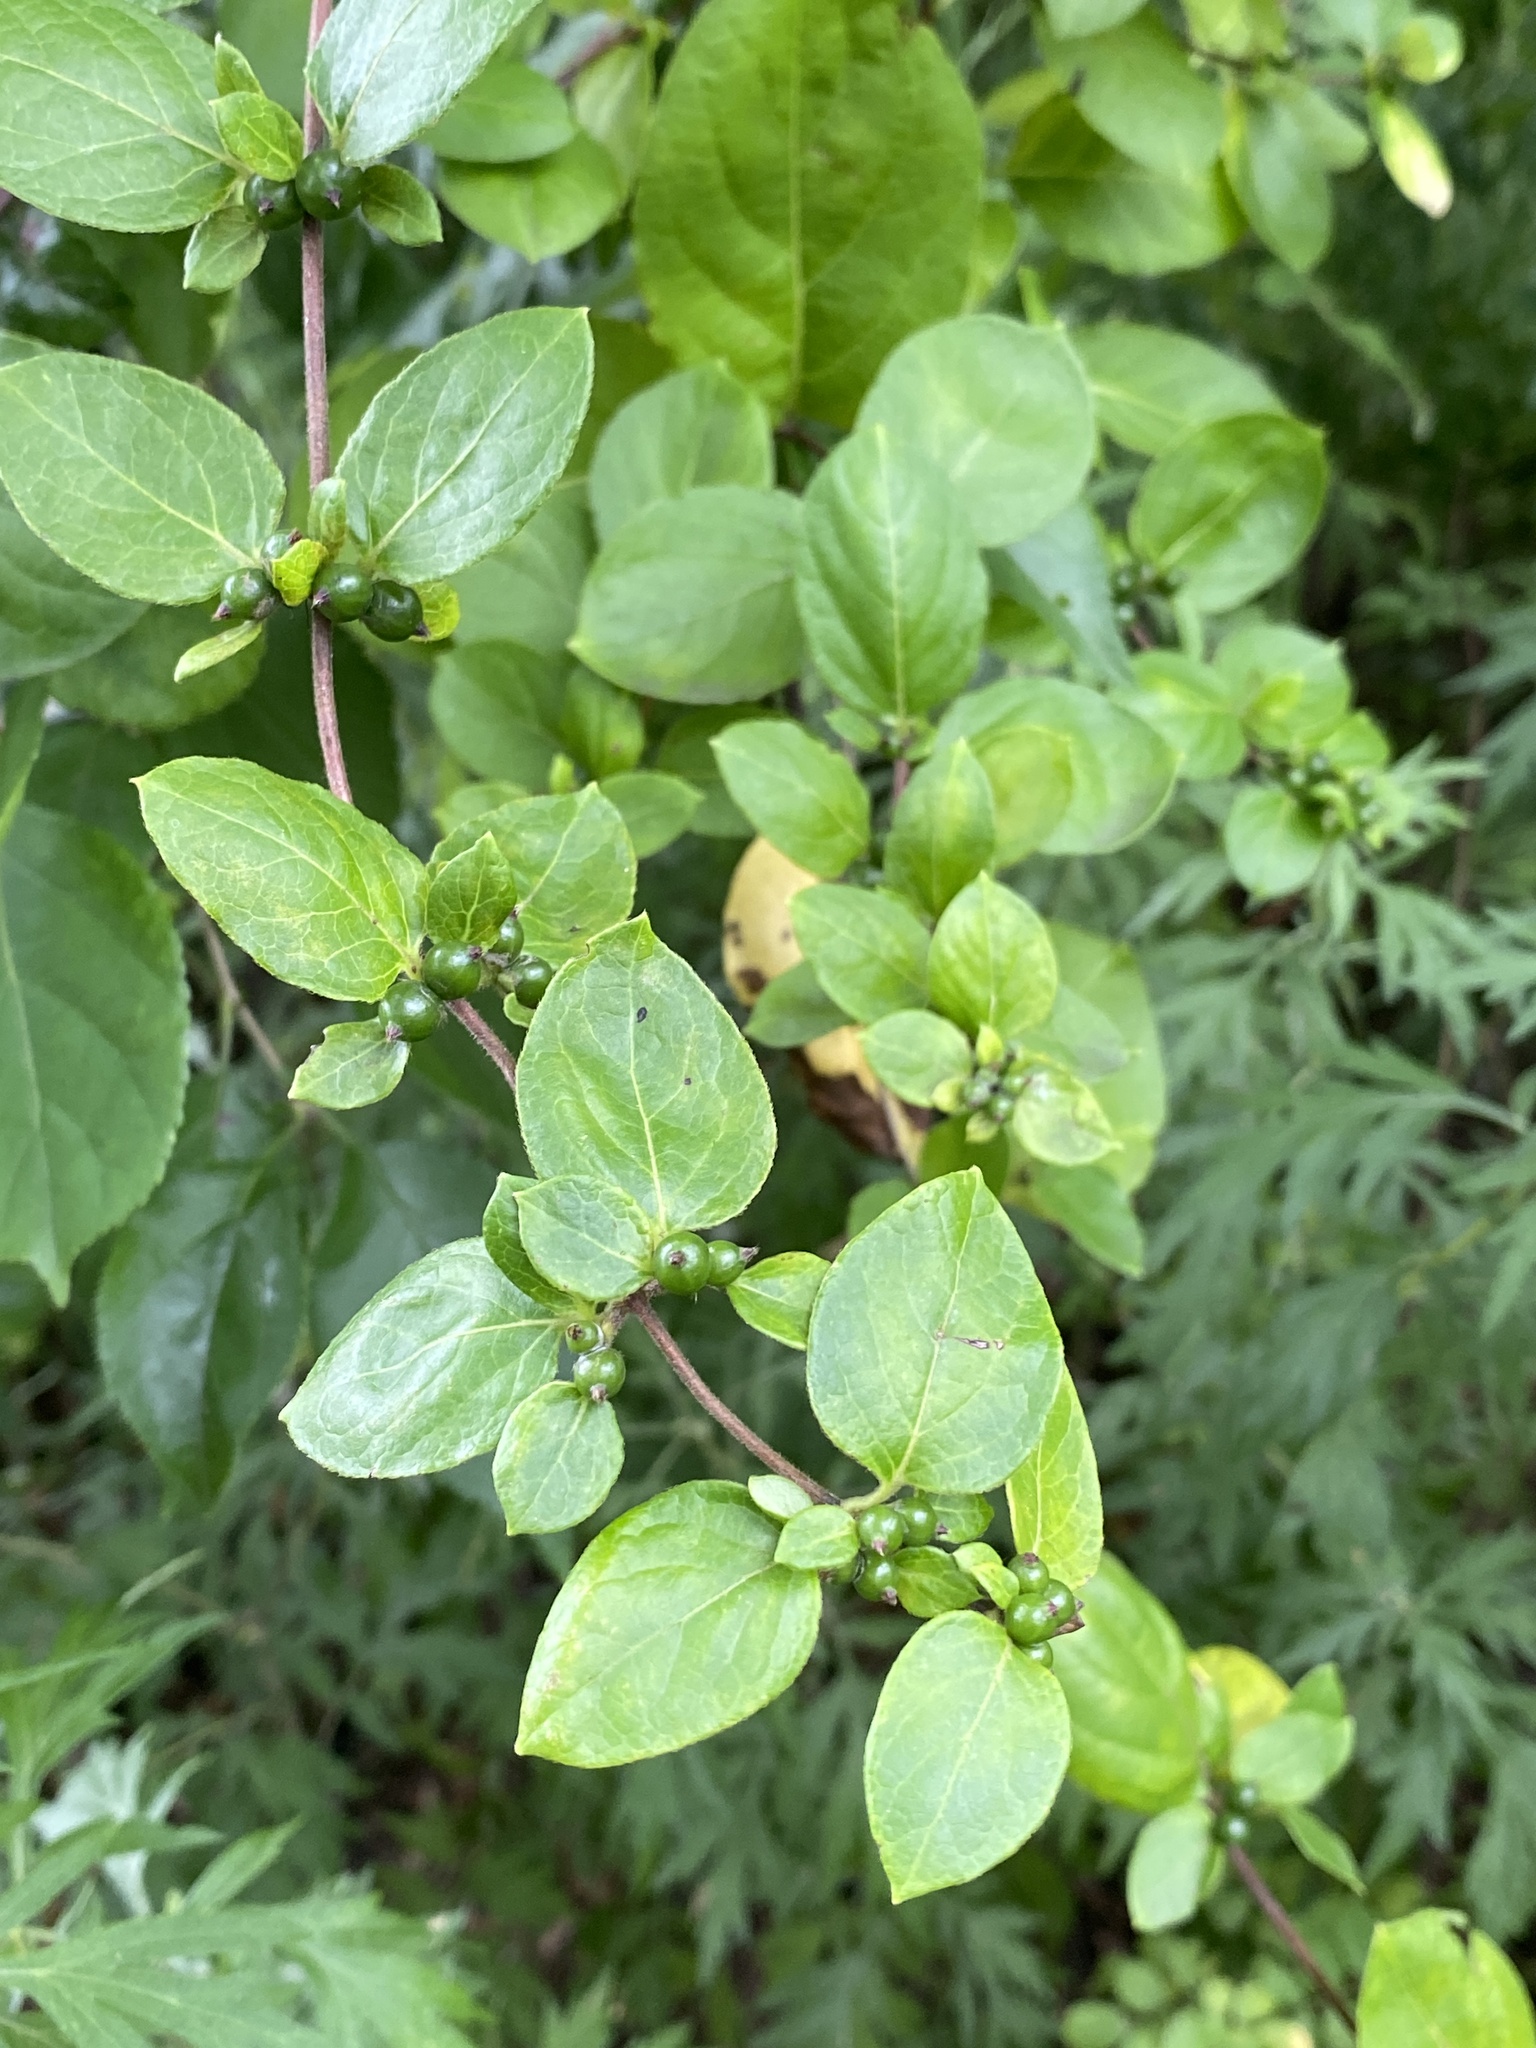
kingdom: Plantae
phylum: Tracheophyta
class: Magnoliopsida
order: Dipsacales
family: Caprifoliaceae
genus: Lonicera
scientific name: Lonicera japonica
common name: Japanese honeysuckle
